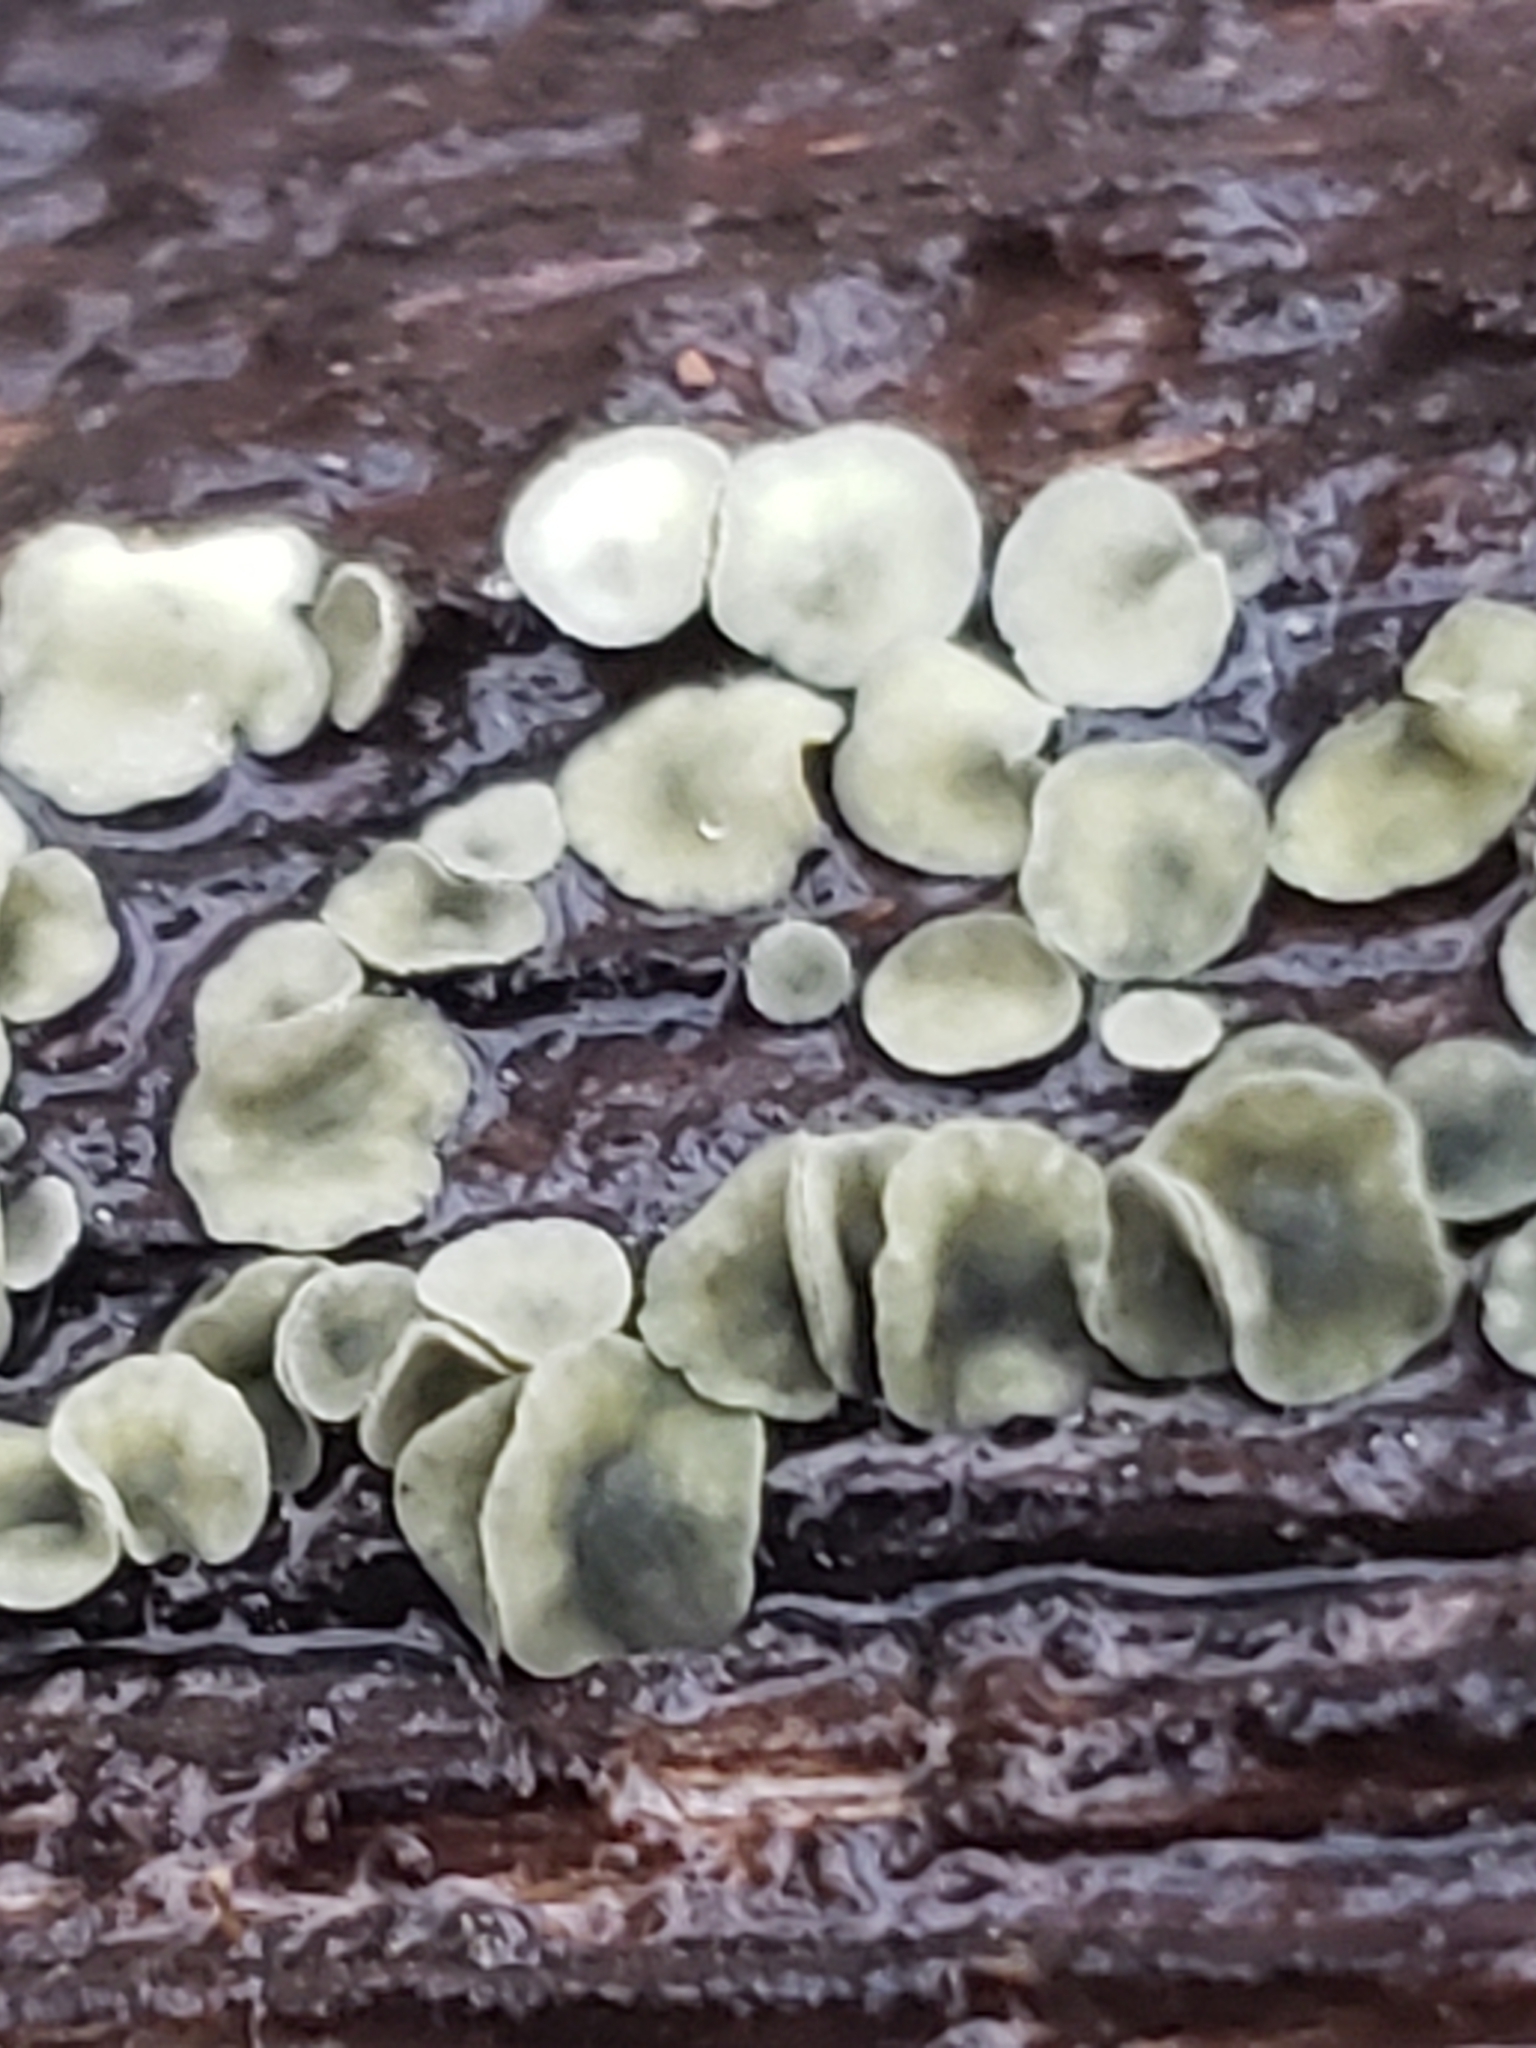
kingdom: Fungi
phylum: Ascomycota
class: Leotiomycetes
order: Helotiales
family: Chlorospleniaceae
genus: Chlorosplenium
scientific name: Chlorosplenium chlora
